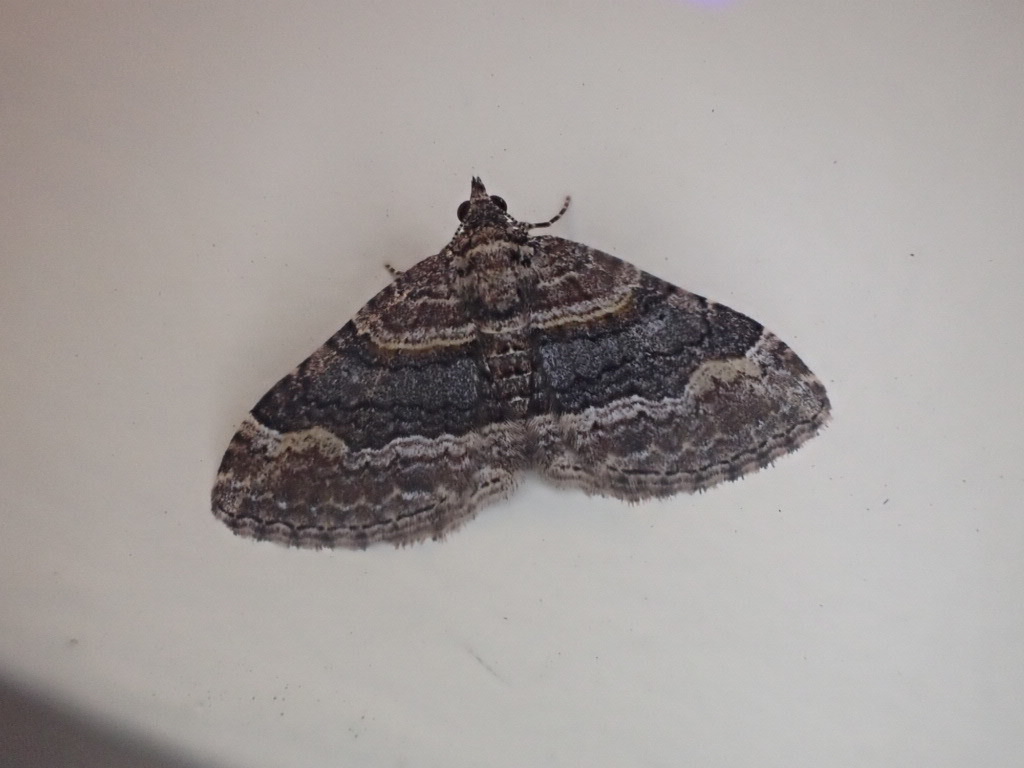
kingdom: Animalia
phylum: Arthropoda
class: Insecta
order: Lepidoptera
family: Geometridae
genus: Epyaxa
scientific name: Epyaxa lucidata
